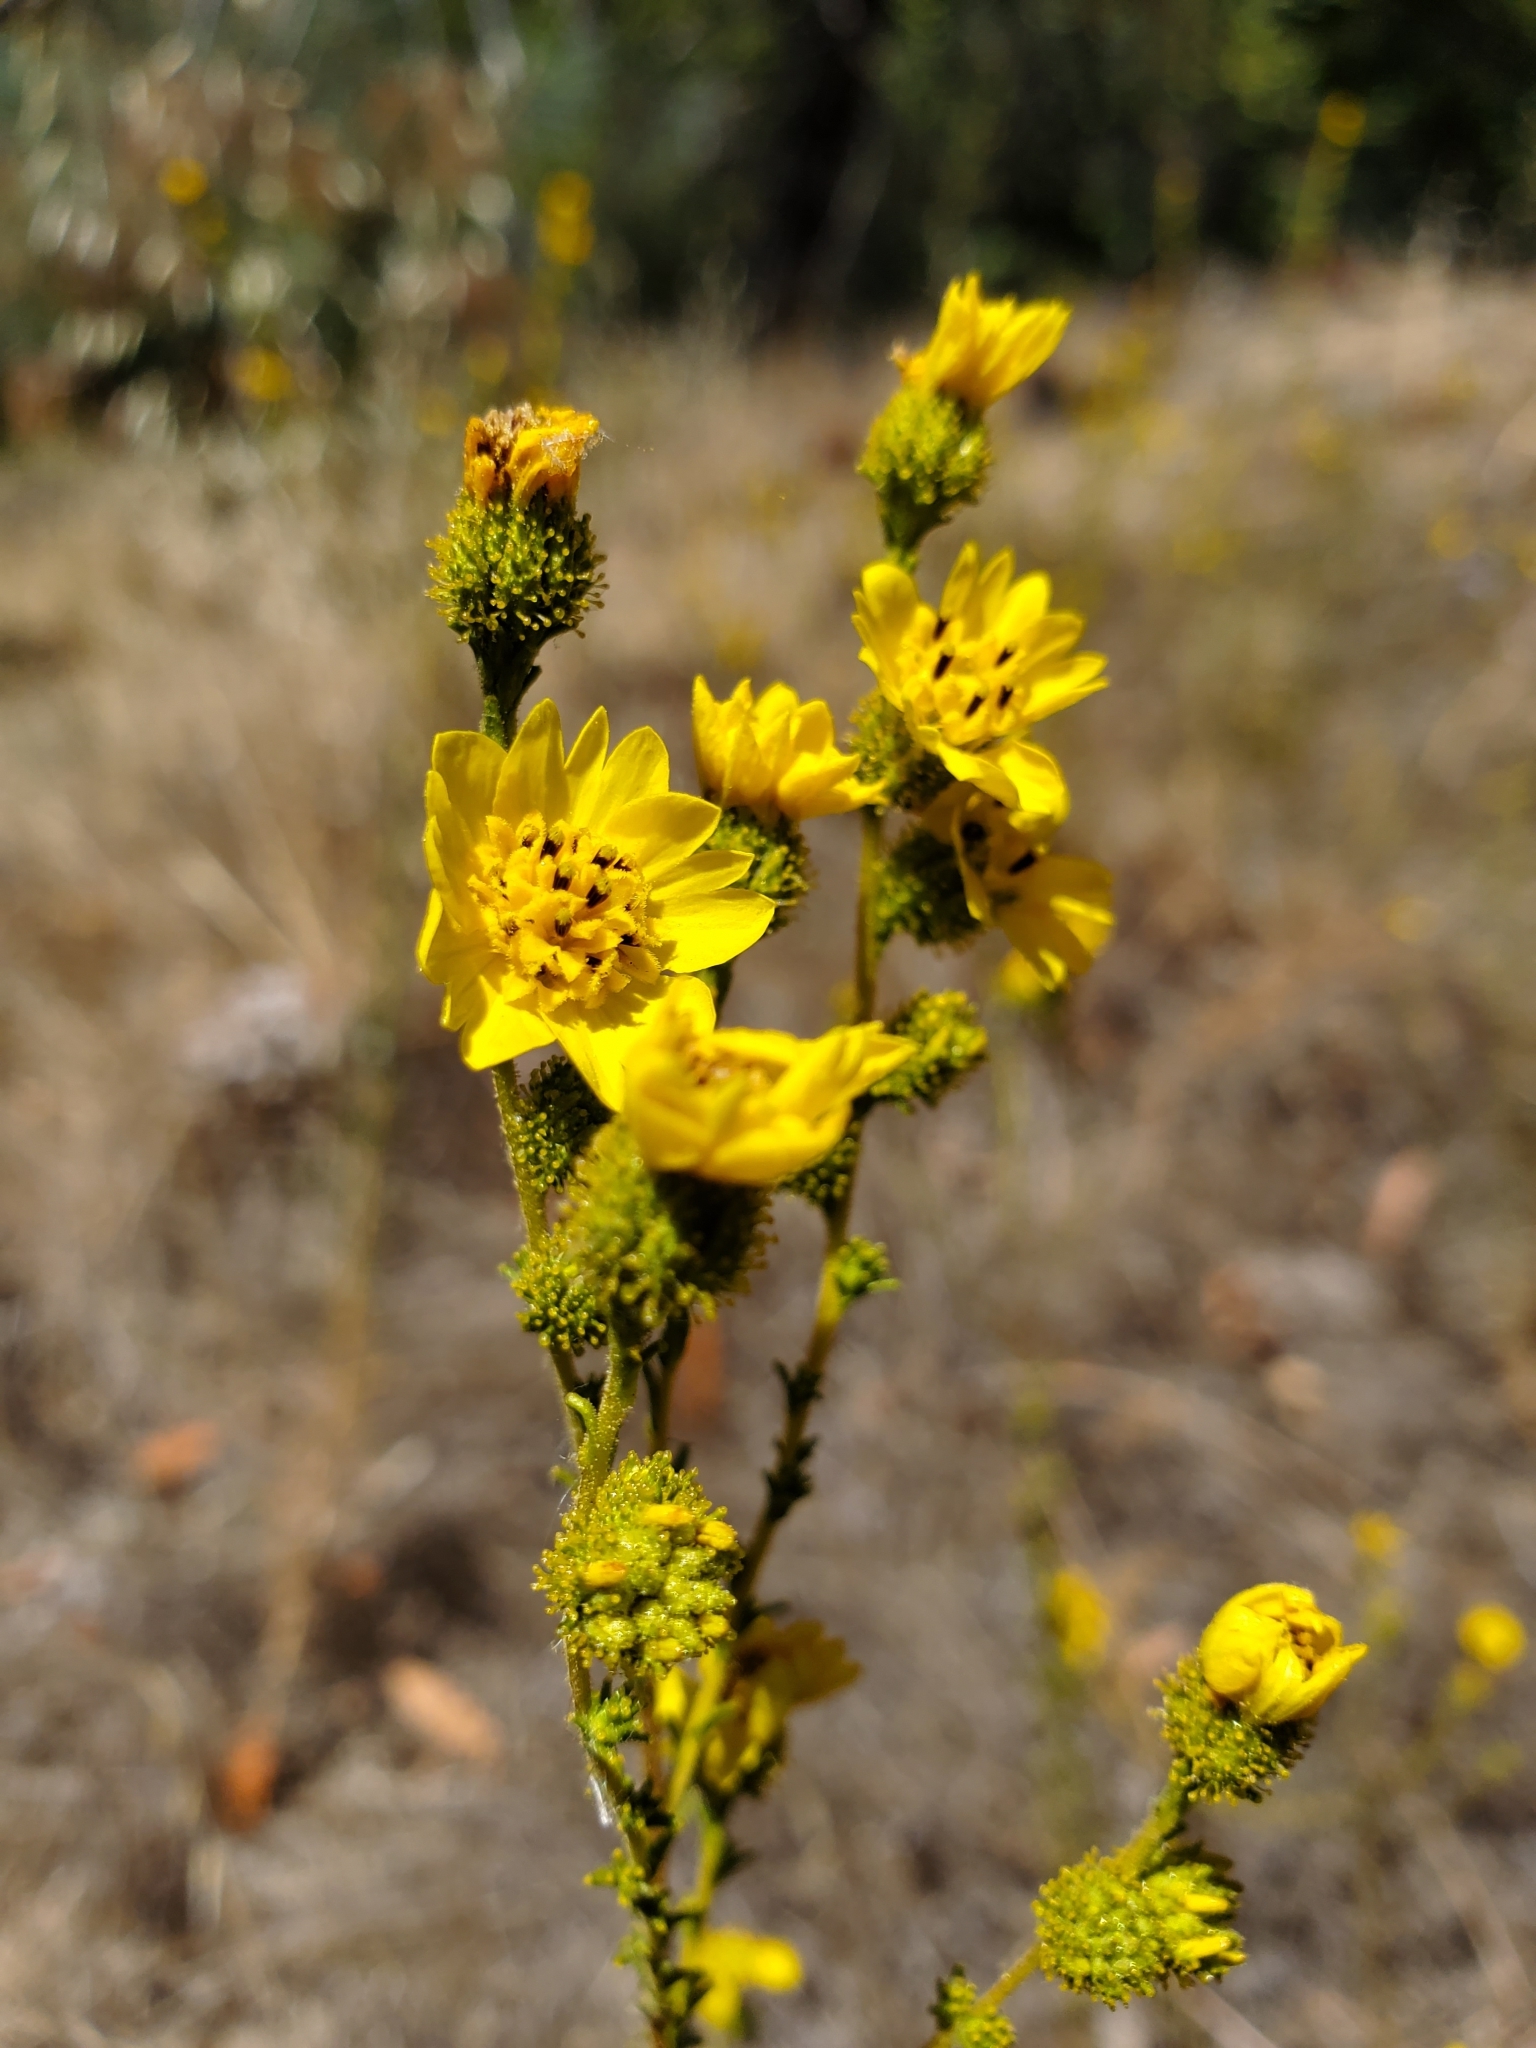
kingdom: Plantae
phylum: Tracheophyta
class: Magnoliopsida
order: Asterales
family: Asteraceae
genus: Holocarpha
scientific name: Holocarpha virgata
